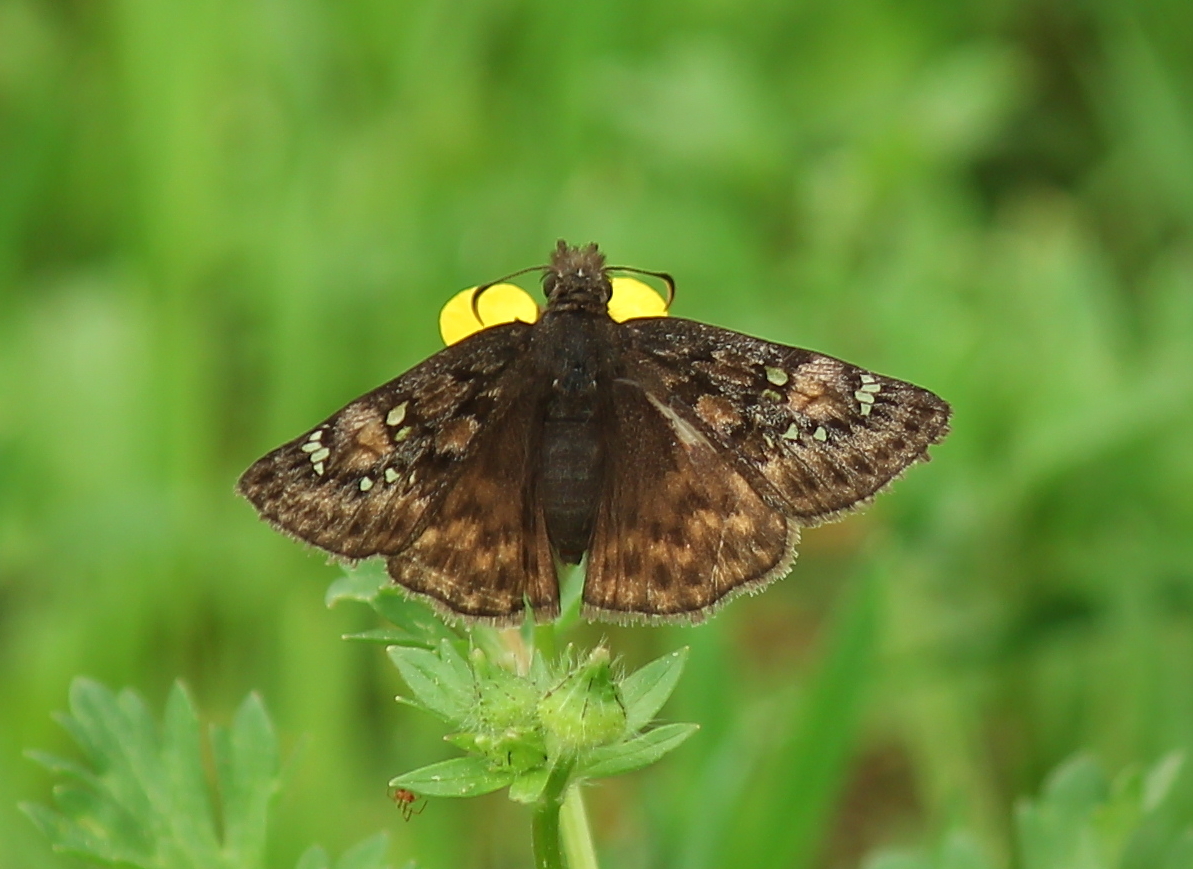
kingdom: Animalia
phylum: Arthropoda
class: Insecta
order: Lepidoptera
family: Hesperiidae
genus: Erynnis
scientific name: Erynnis horatius
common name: Horace's duskywing
